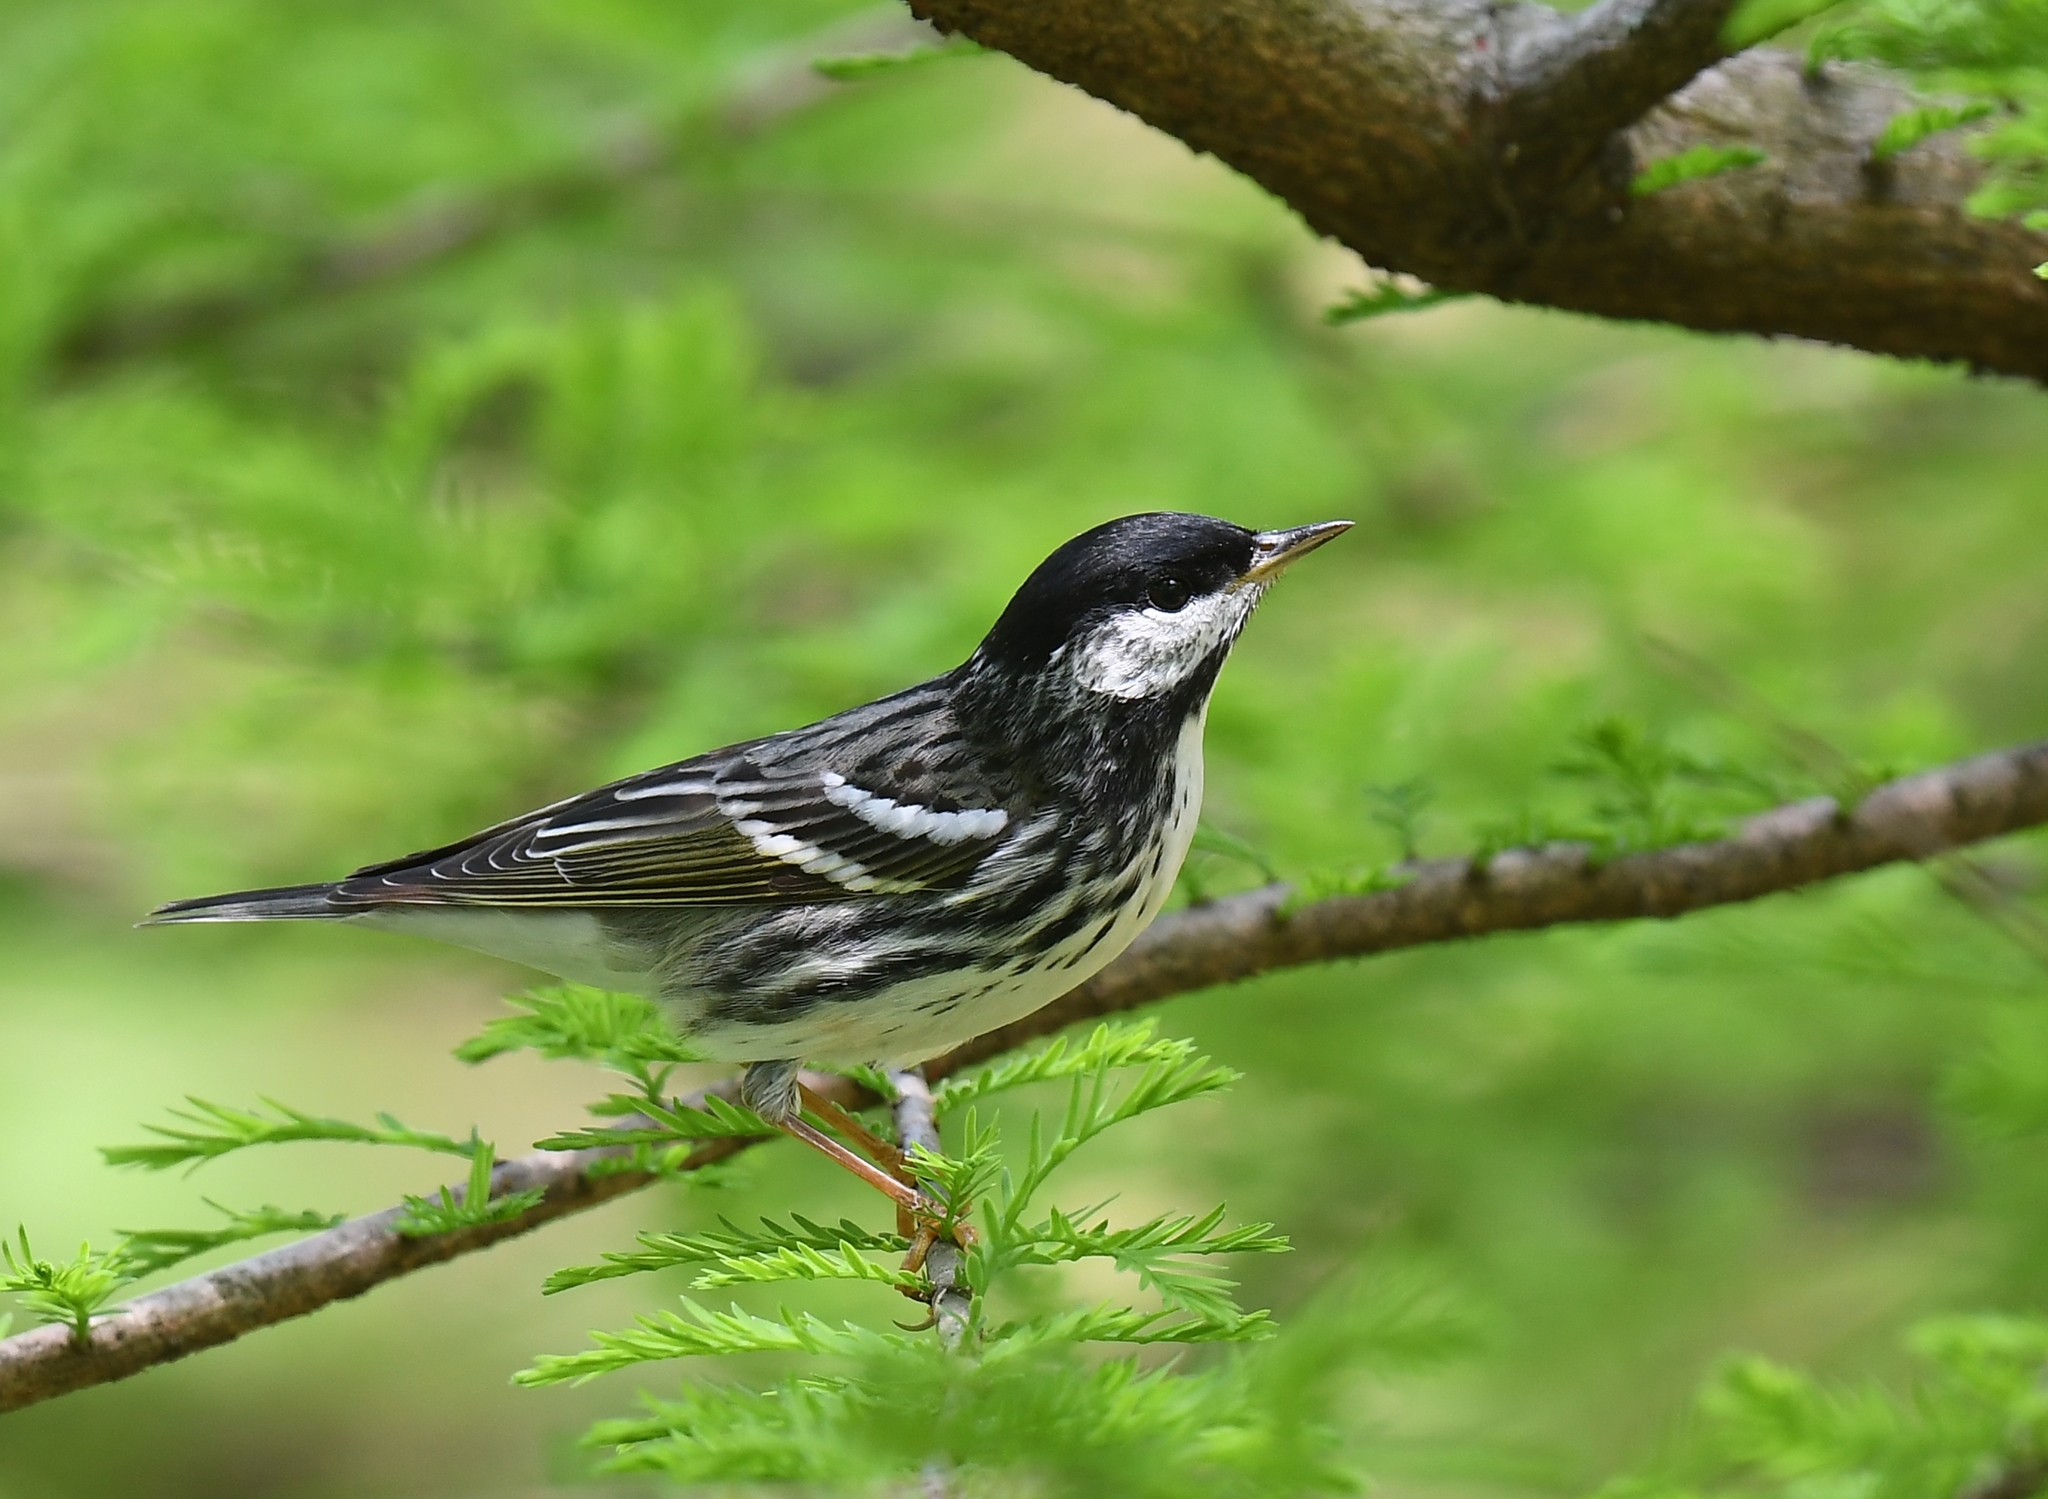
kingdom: Animalia
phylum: Chordata
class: Aves
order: Passeriformes
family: Parulidae
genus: Setophaga
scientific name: Setophaga striata
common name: Blackpoll warbler
